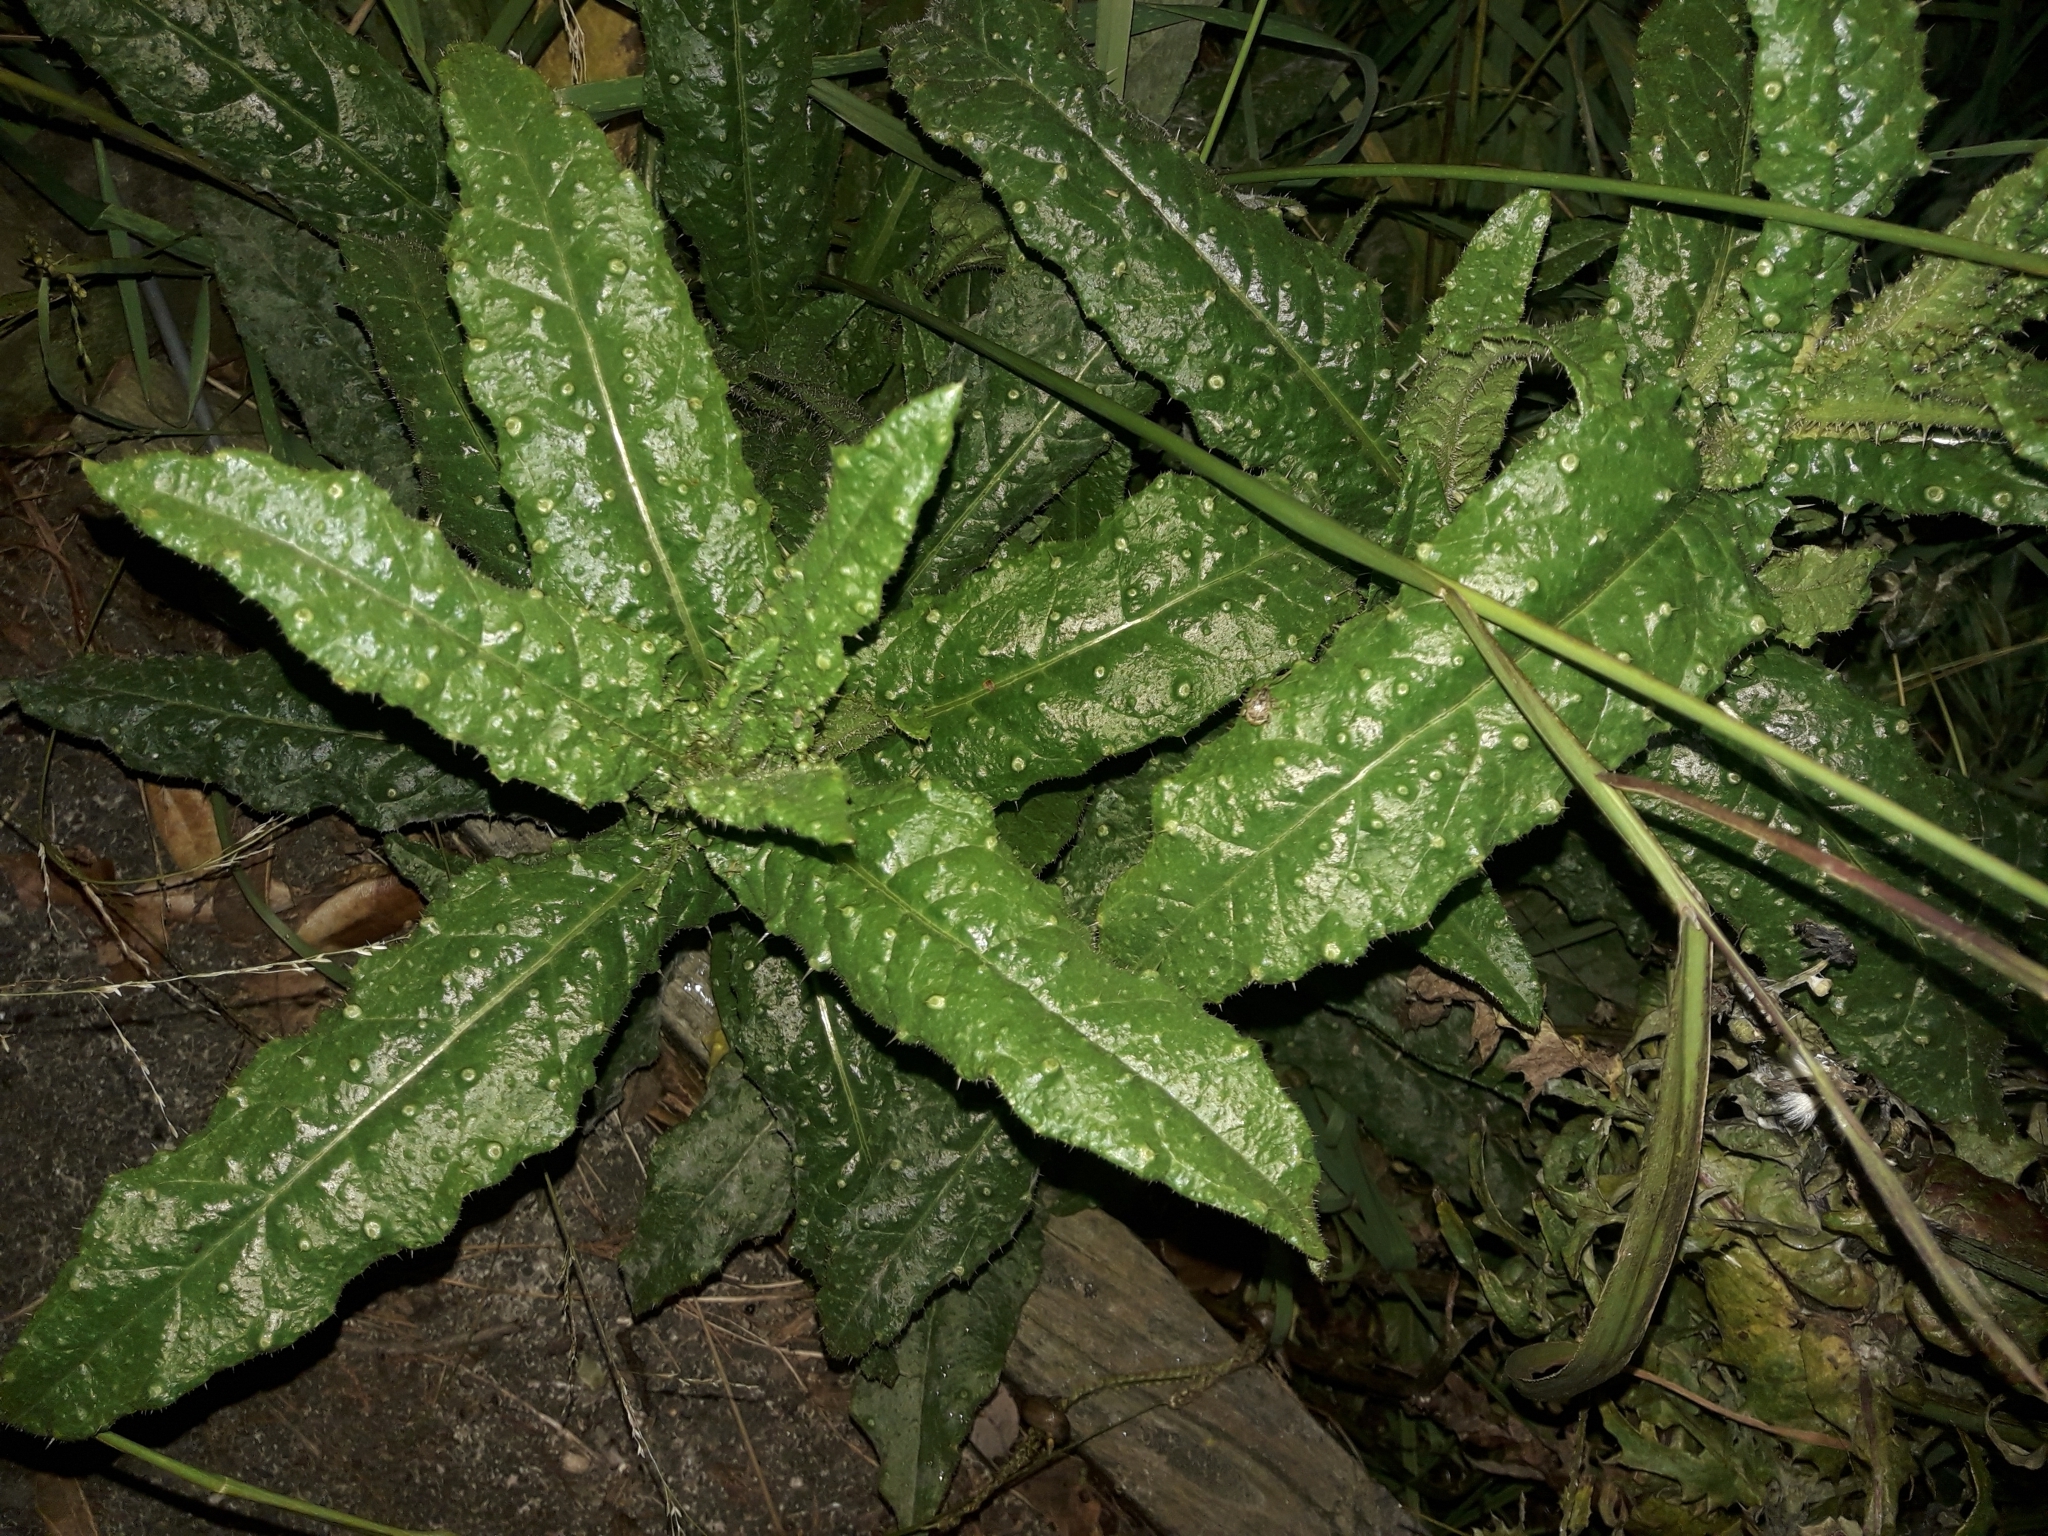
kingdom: Plantae
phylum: Tracheophyta
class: Magnoliopsida
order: Asterales
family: Asteraceae
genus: Helminthotheca
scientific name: Helminthotheca echioides
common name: Ox-tongue
